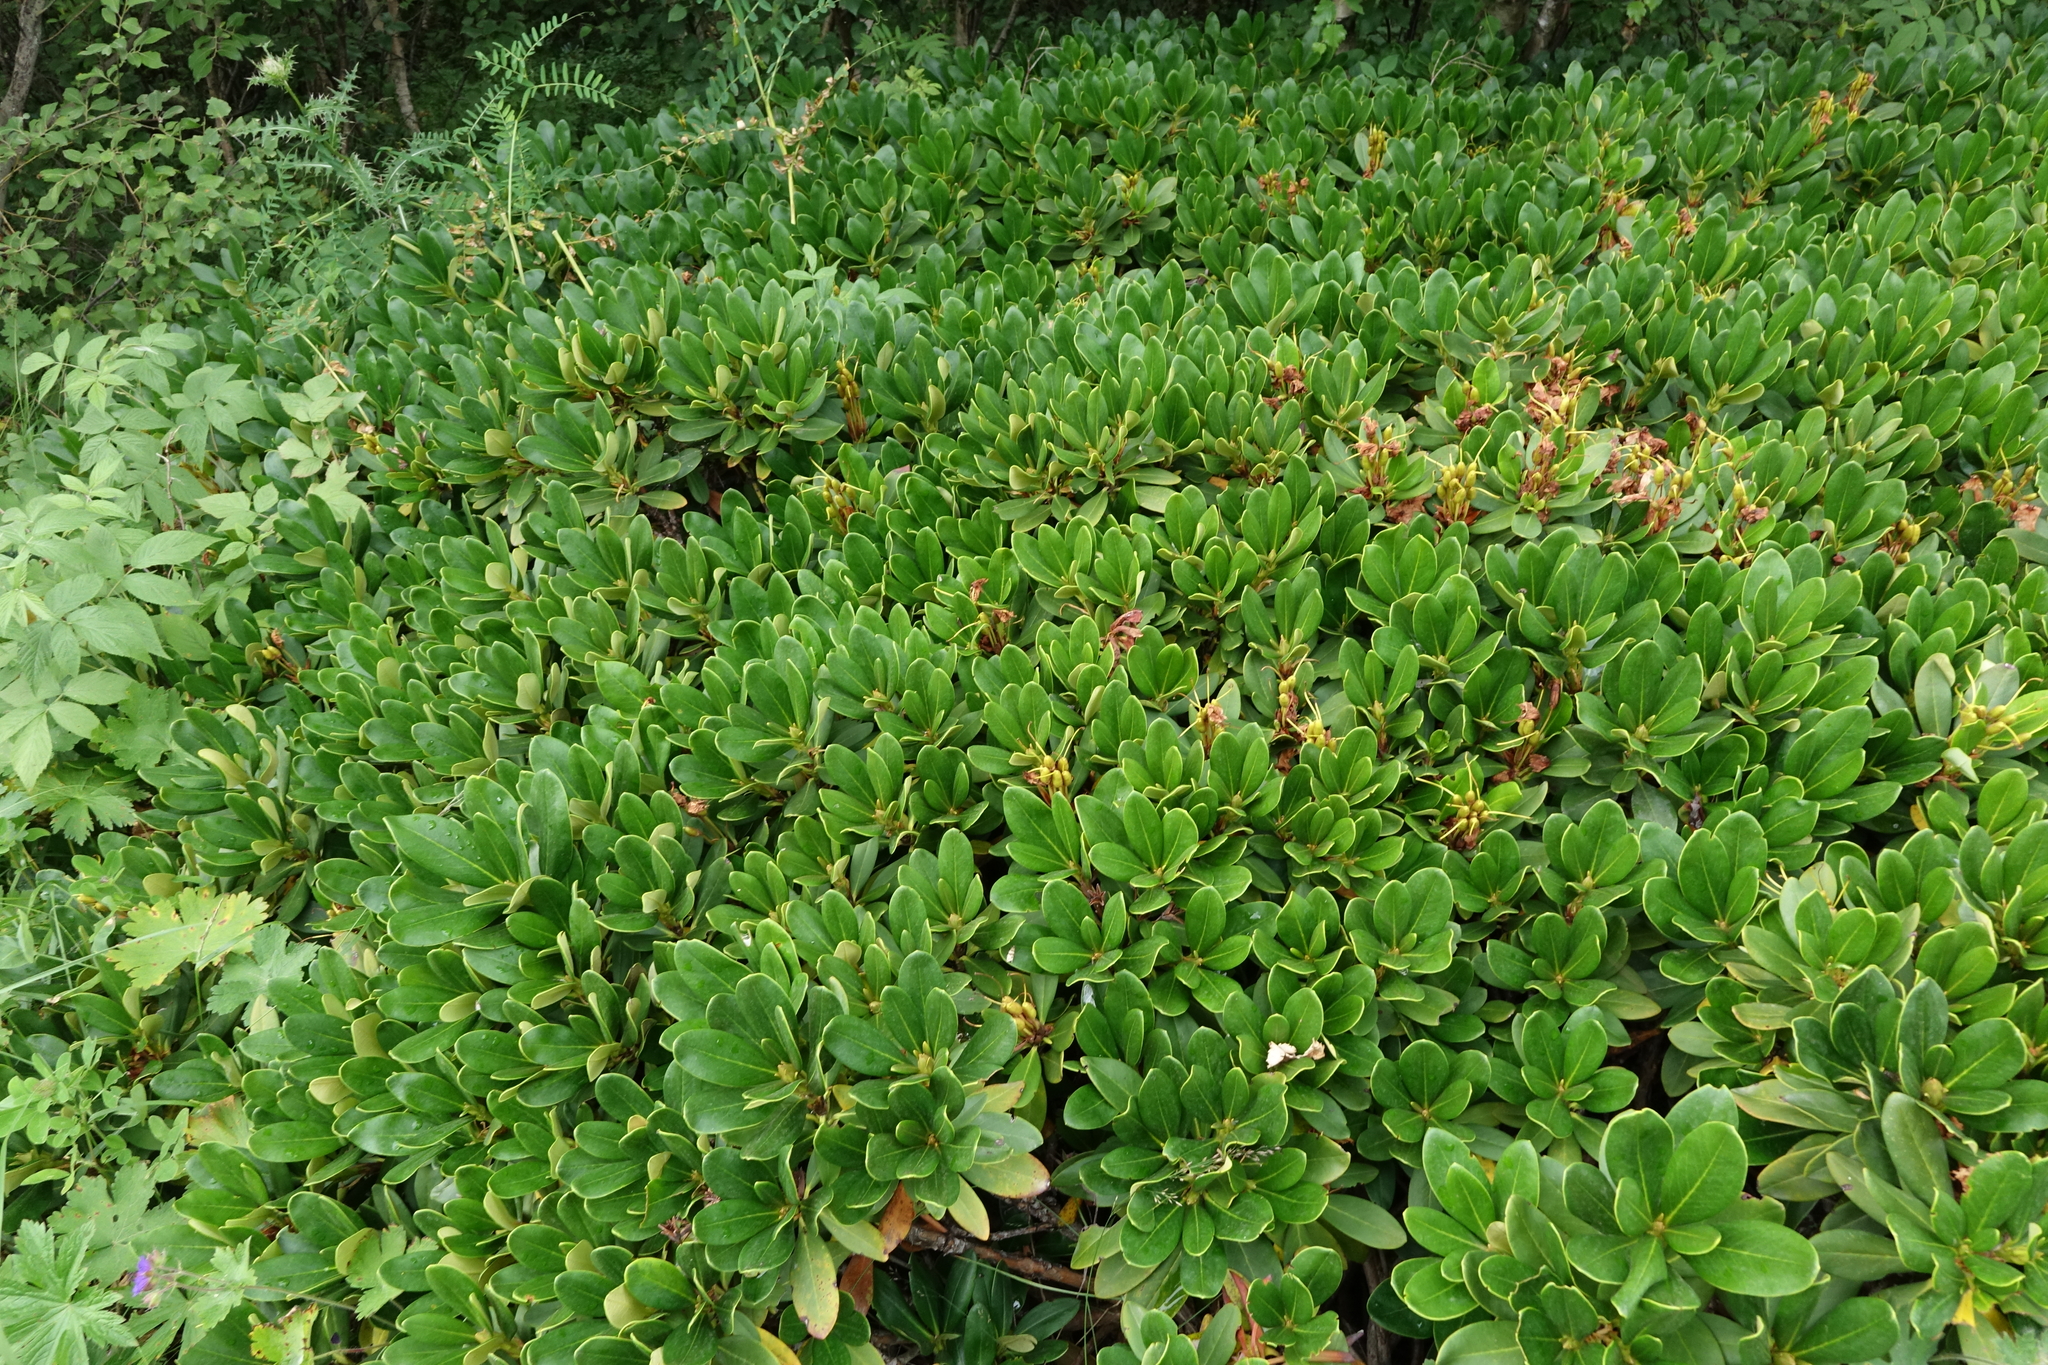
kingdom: Plantae
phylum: Tracheophyta
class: Magnoliopsida
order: Ericales
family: Ericaceae
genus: Rhododendron
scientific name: Rhododendron caucasicum
